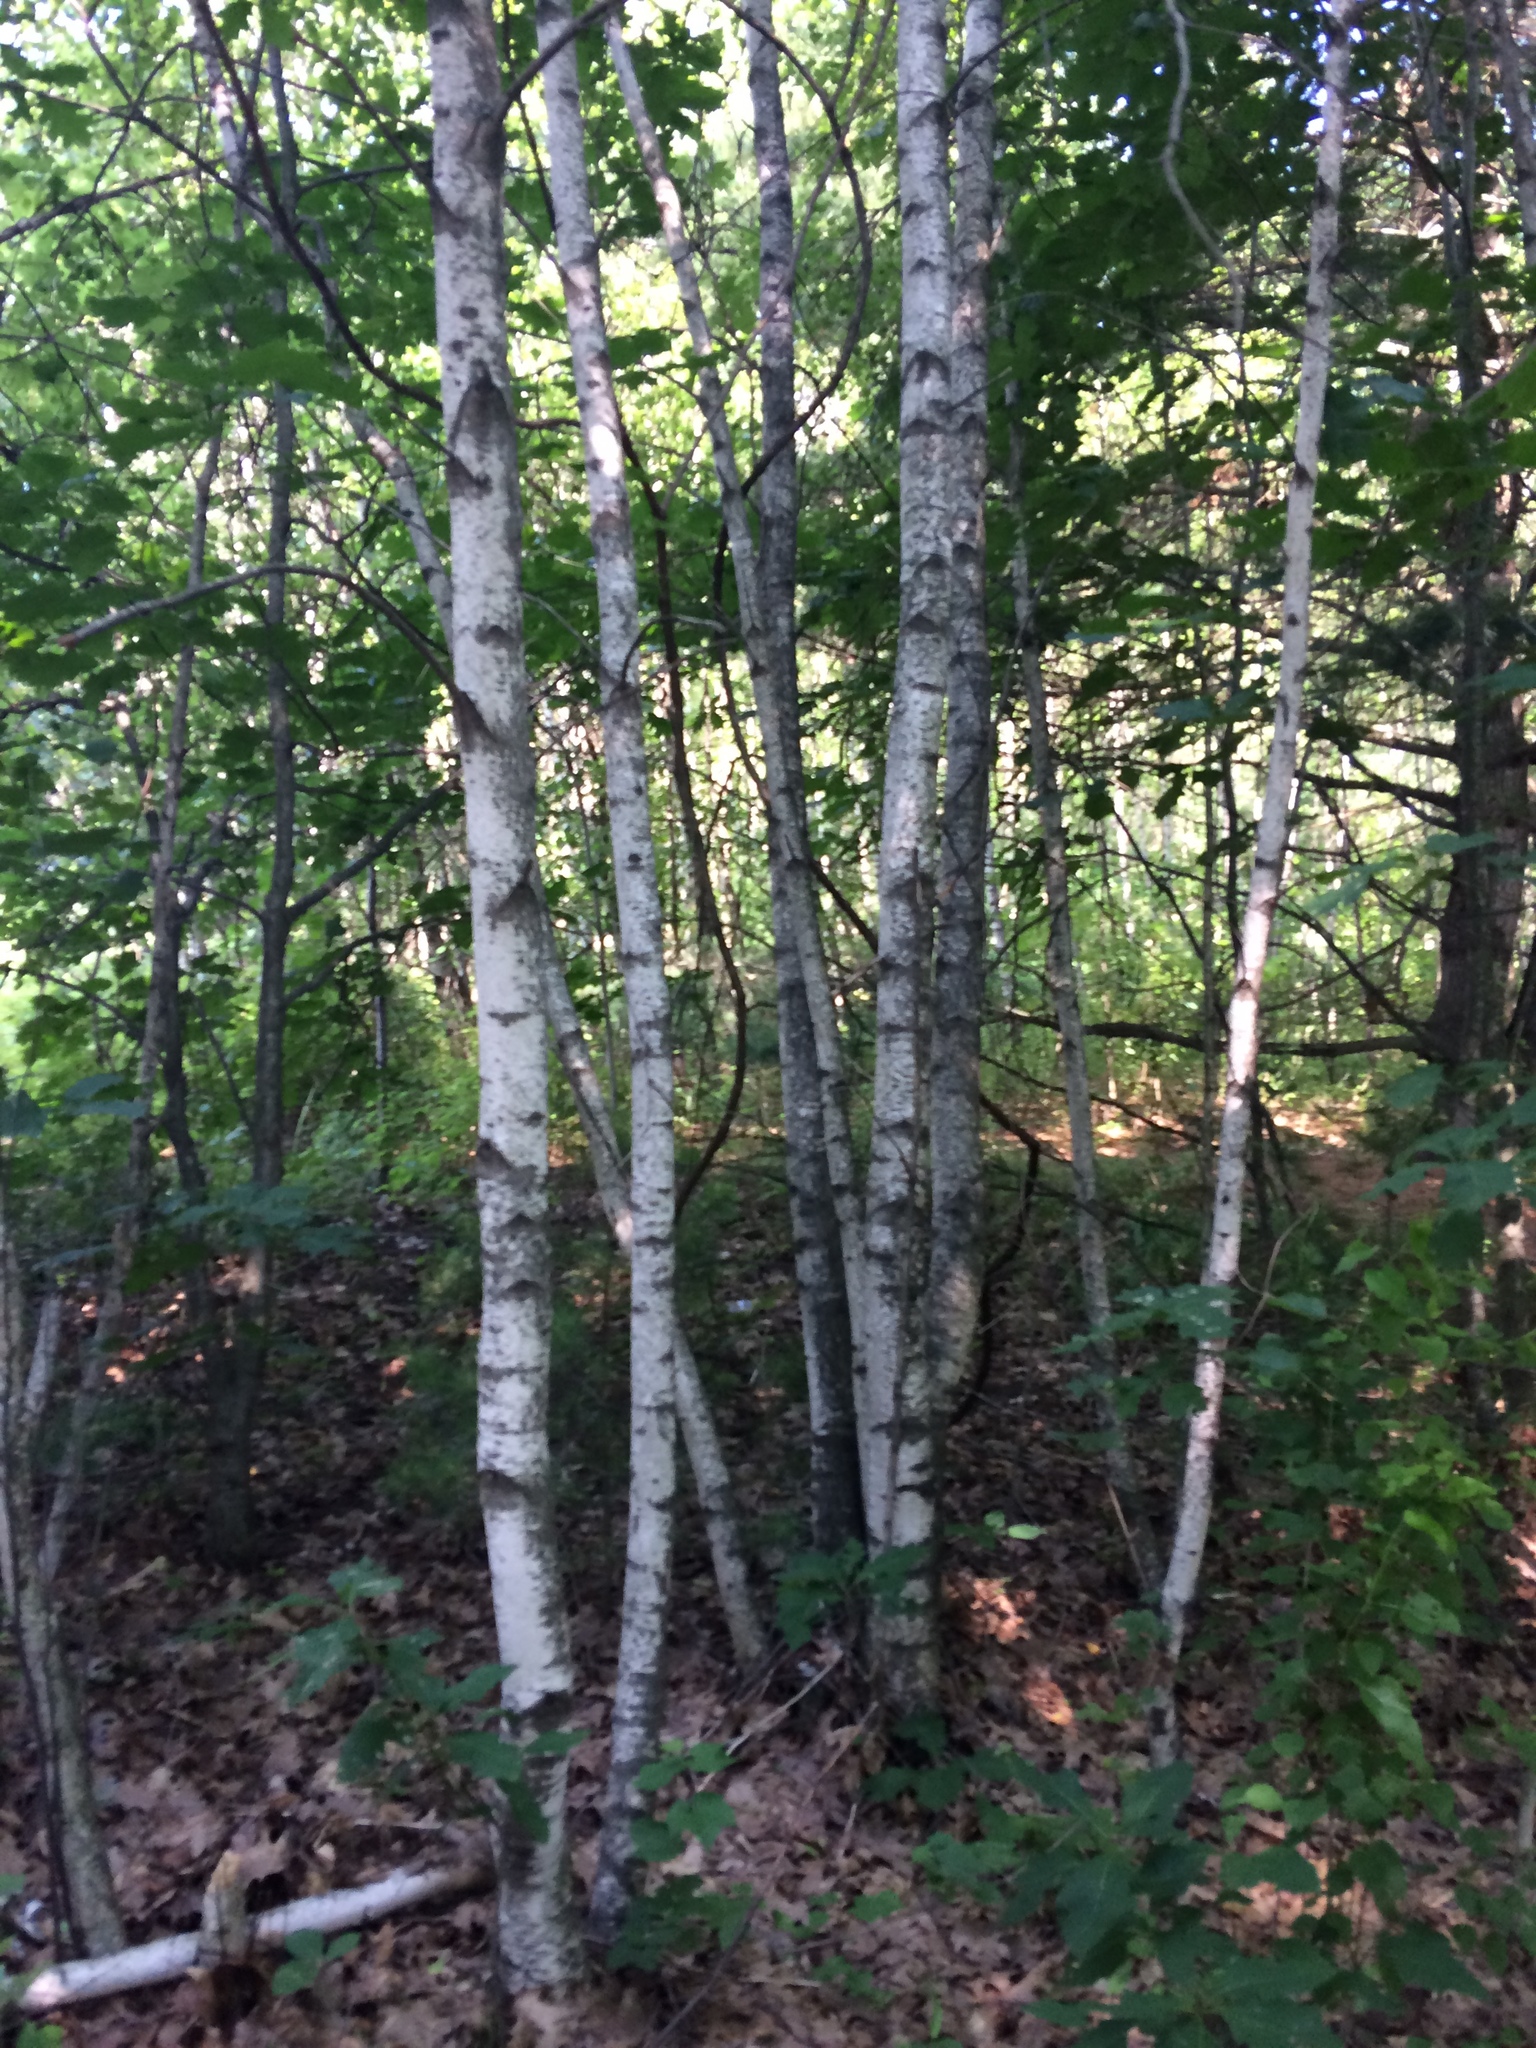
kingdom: Plantae
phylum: Tracheophyta
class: Magnoliopsida
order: Fagales
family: Betulaceae
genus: Betula
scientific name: Betula populifolia
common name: Fire birch
